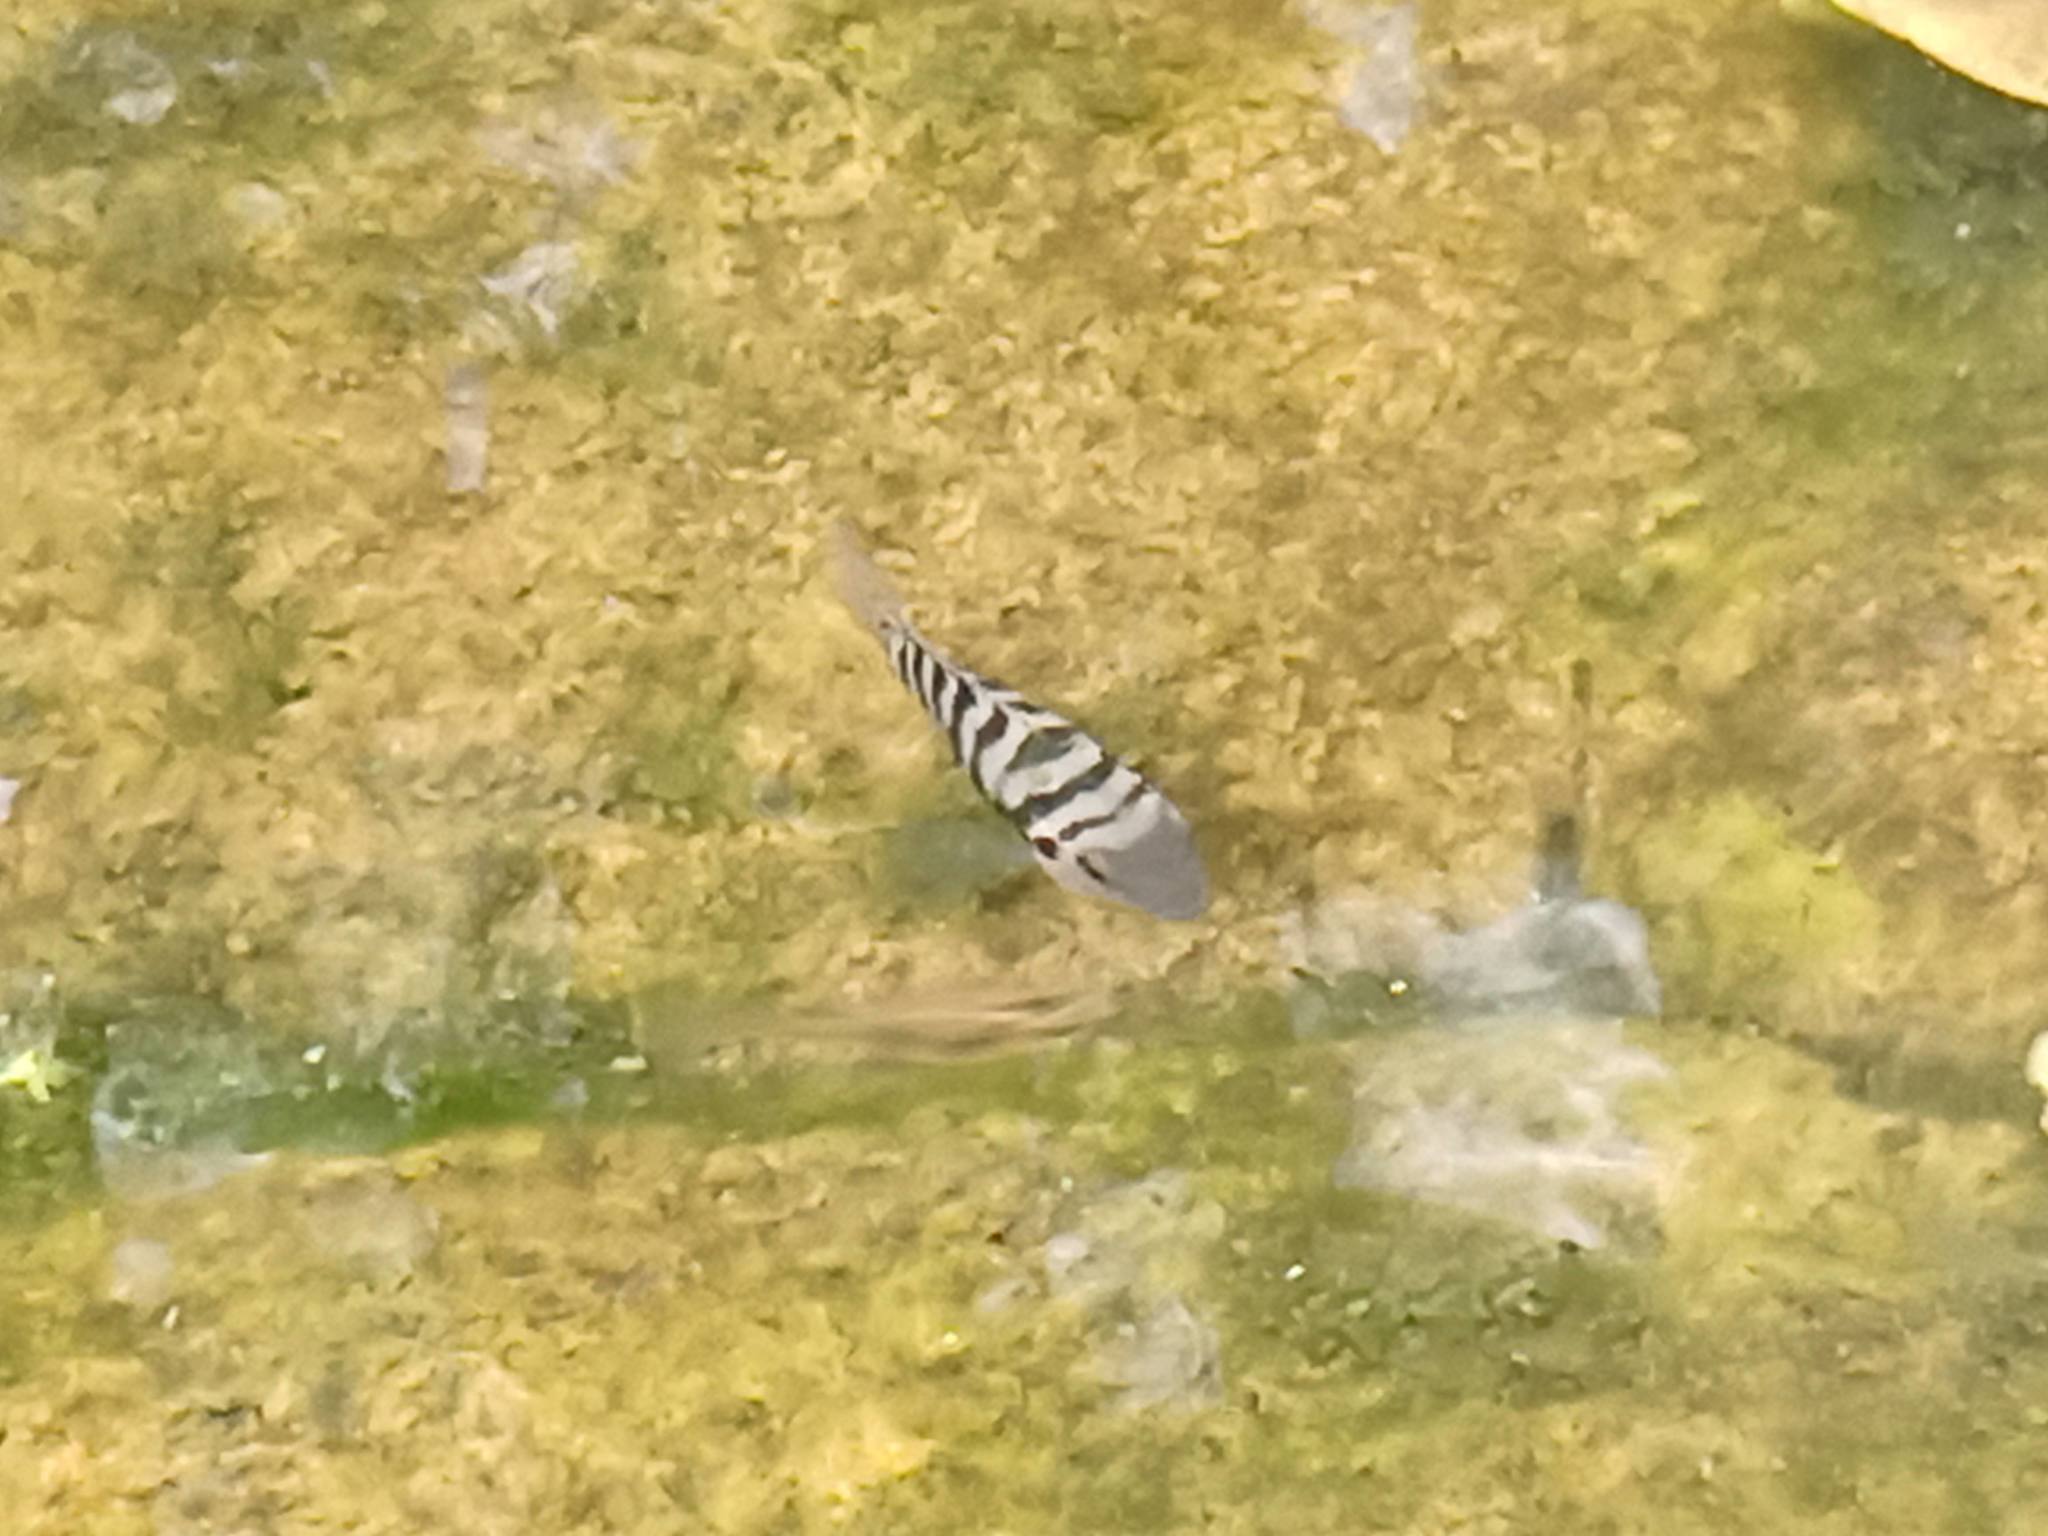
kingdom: Animalia
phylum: Chordata
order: Perciformes
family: Cichlidae
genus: Amatitlania
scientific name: Amatitlania nigrofasciata
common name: Convict cichlid
